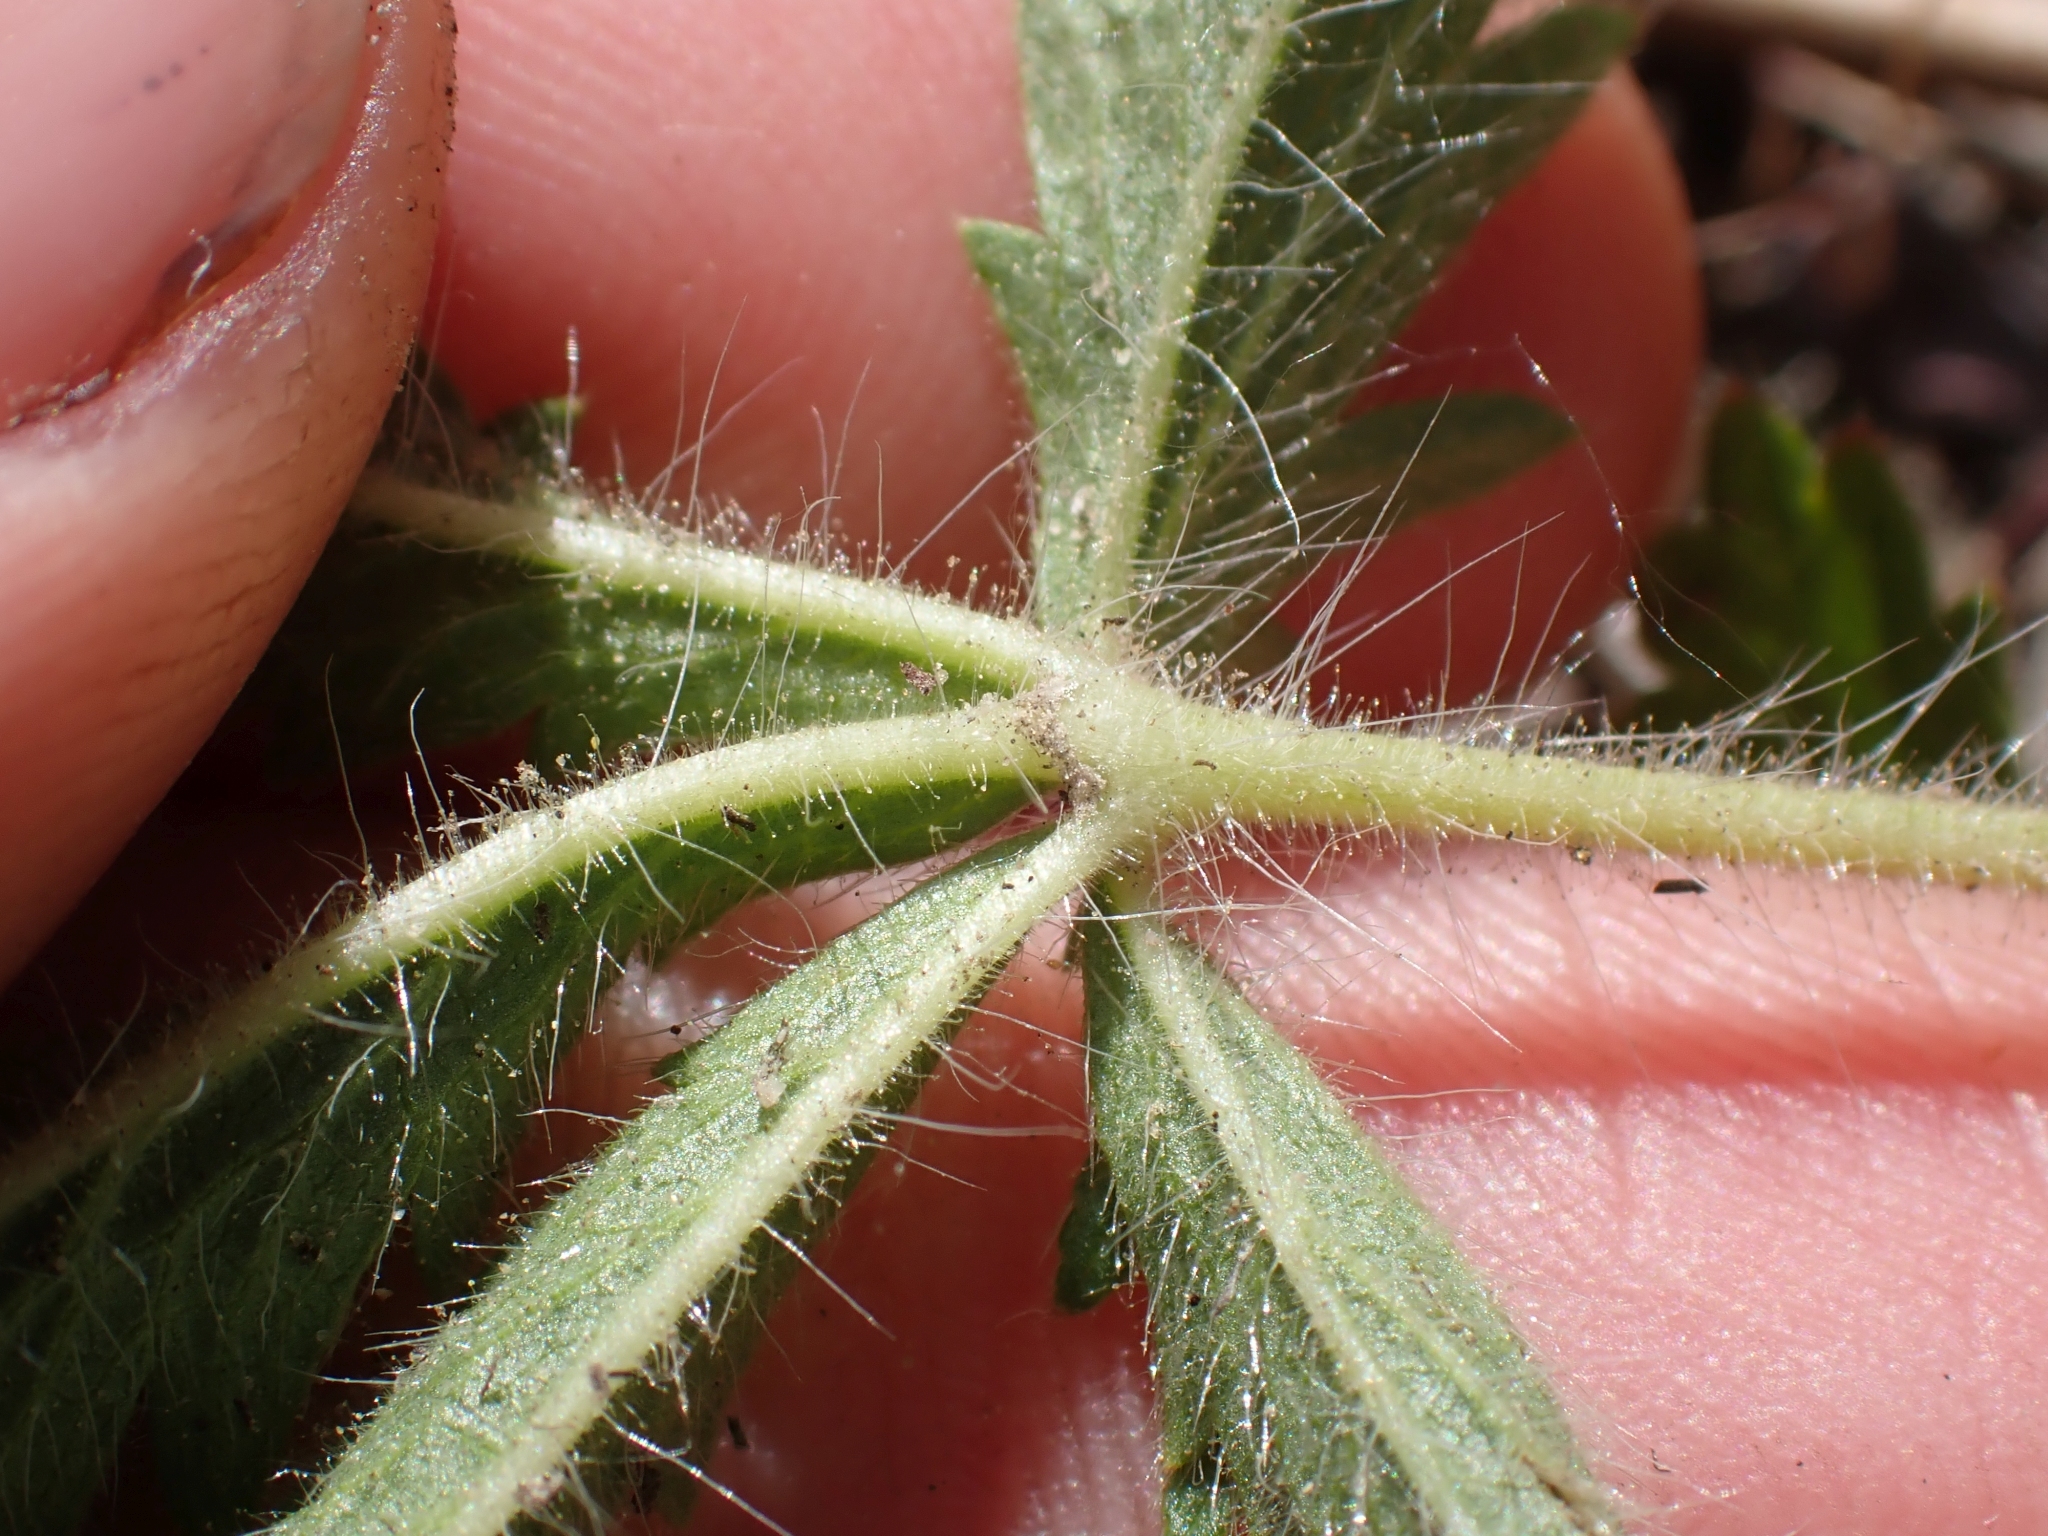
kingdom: Plantae
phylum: Tracheophyta
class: Magnoliopsida
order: Rosales
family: Rosaceae
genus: Potentilla
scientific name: Potentilla recta
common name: Sulphur cinquefoil
